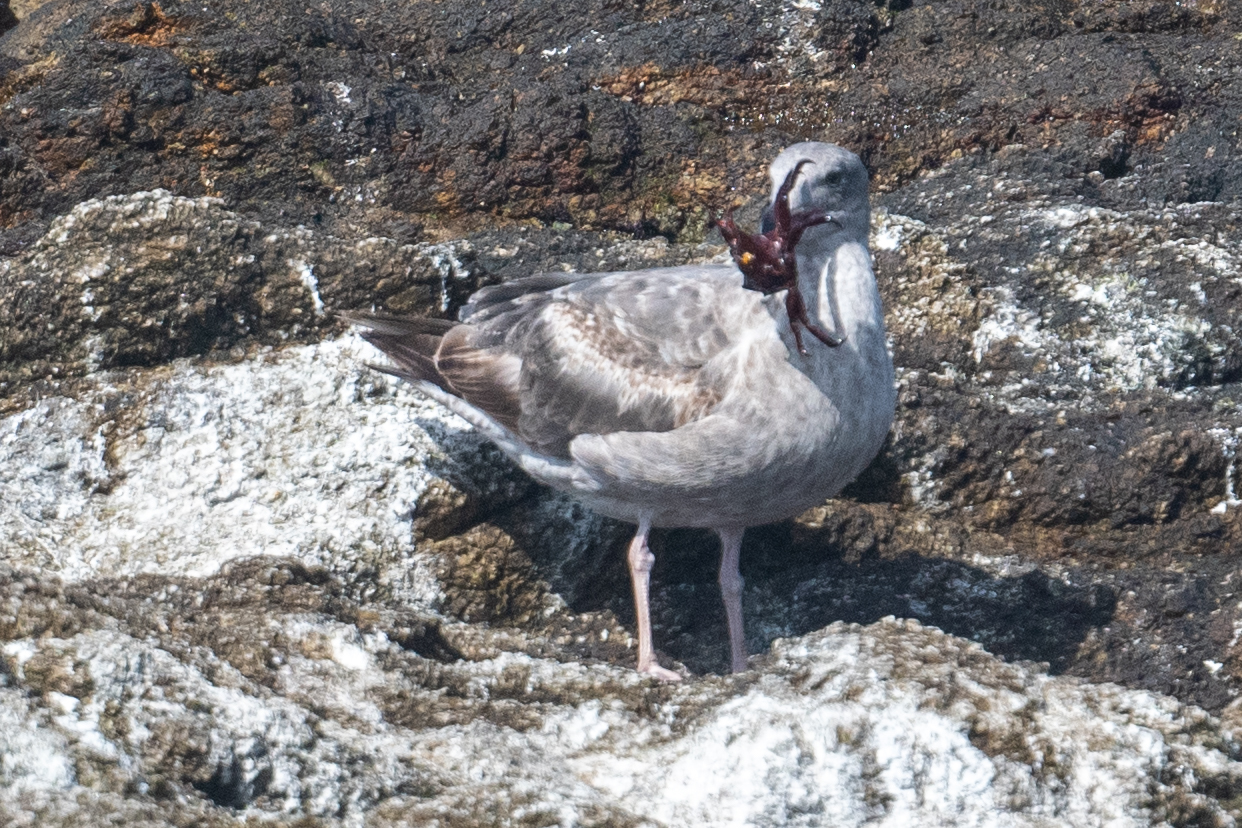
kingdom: Animalia
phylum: Chordata
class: Aves
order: Charadriiformes
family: Laridae
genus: Larus
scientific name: Larus occidentalis
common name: Western gull
